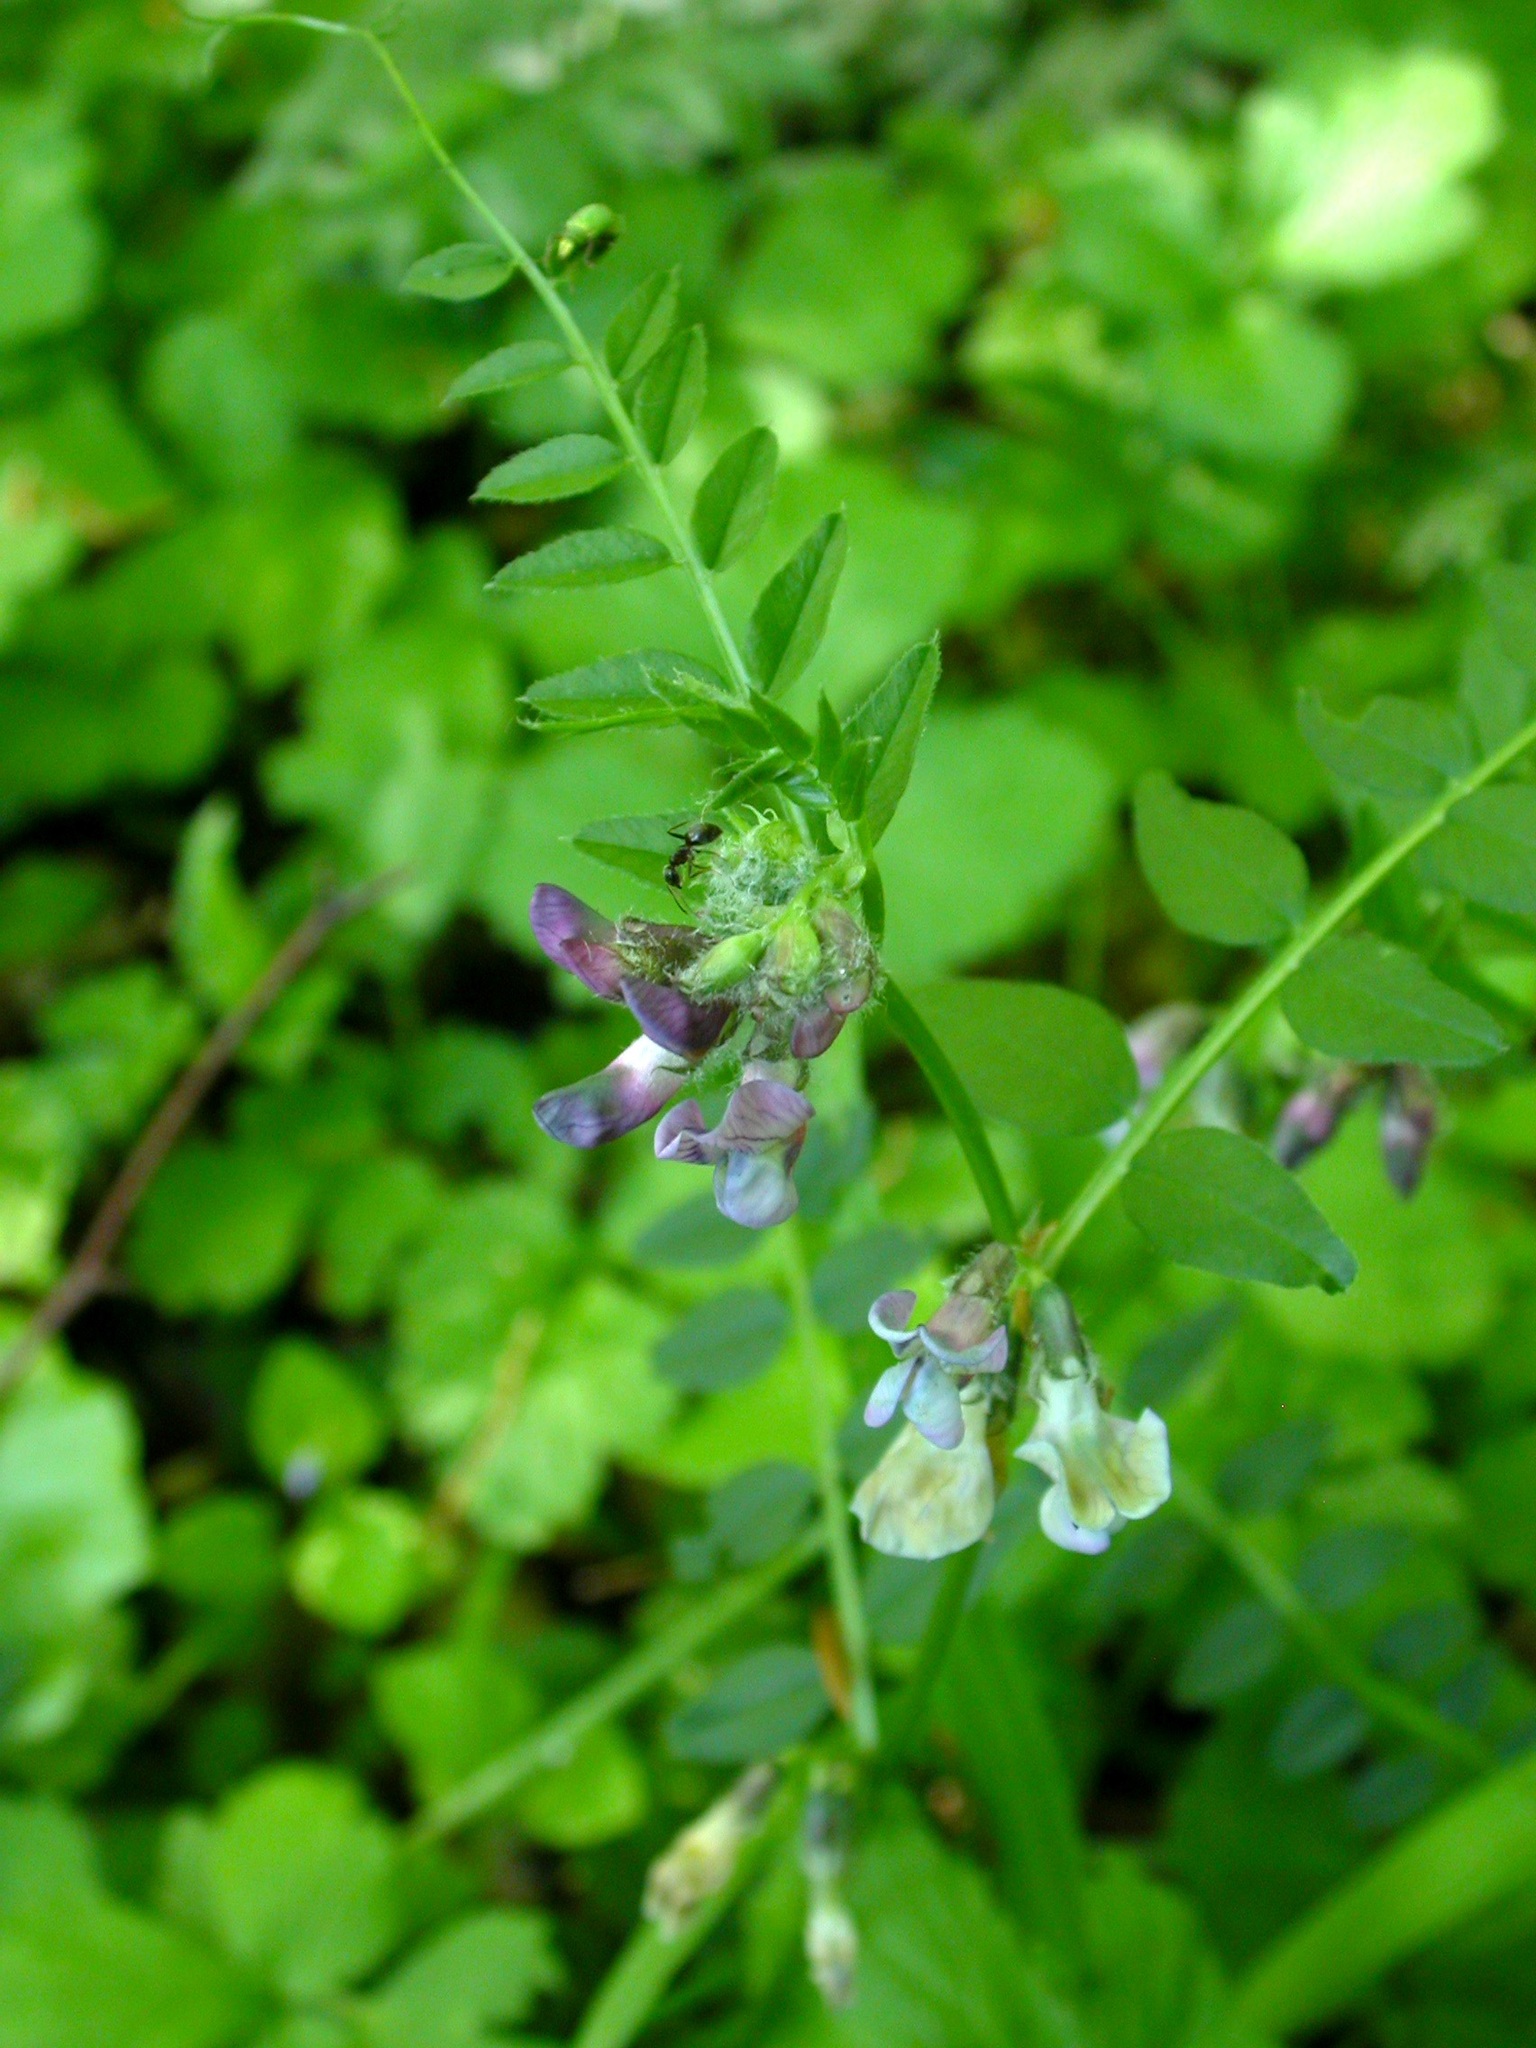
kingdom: Plantae
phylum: Tracheophyta
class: Magnoliopsida
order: Fabales
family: Fabaceae
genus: Vicia
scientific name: Vicia sepium
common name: Bush vetch
